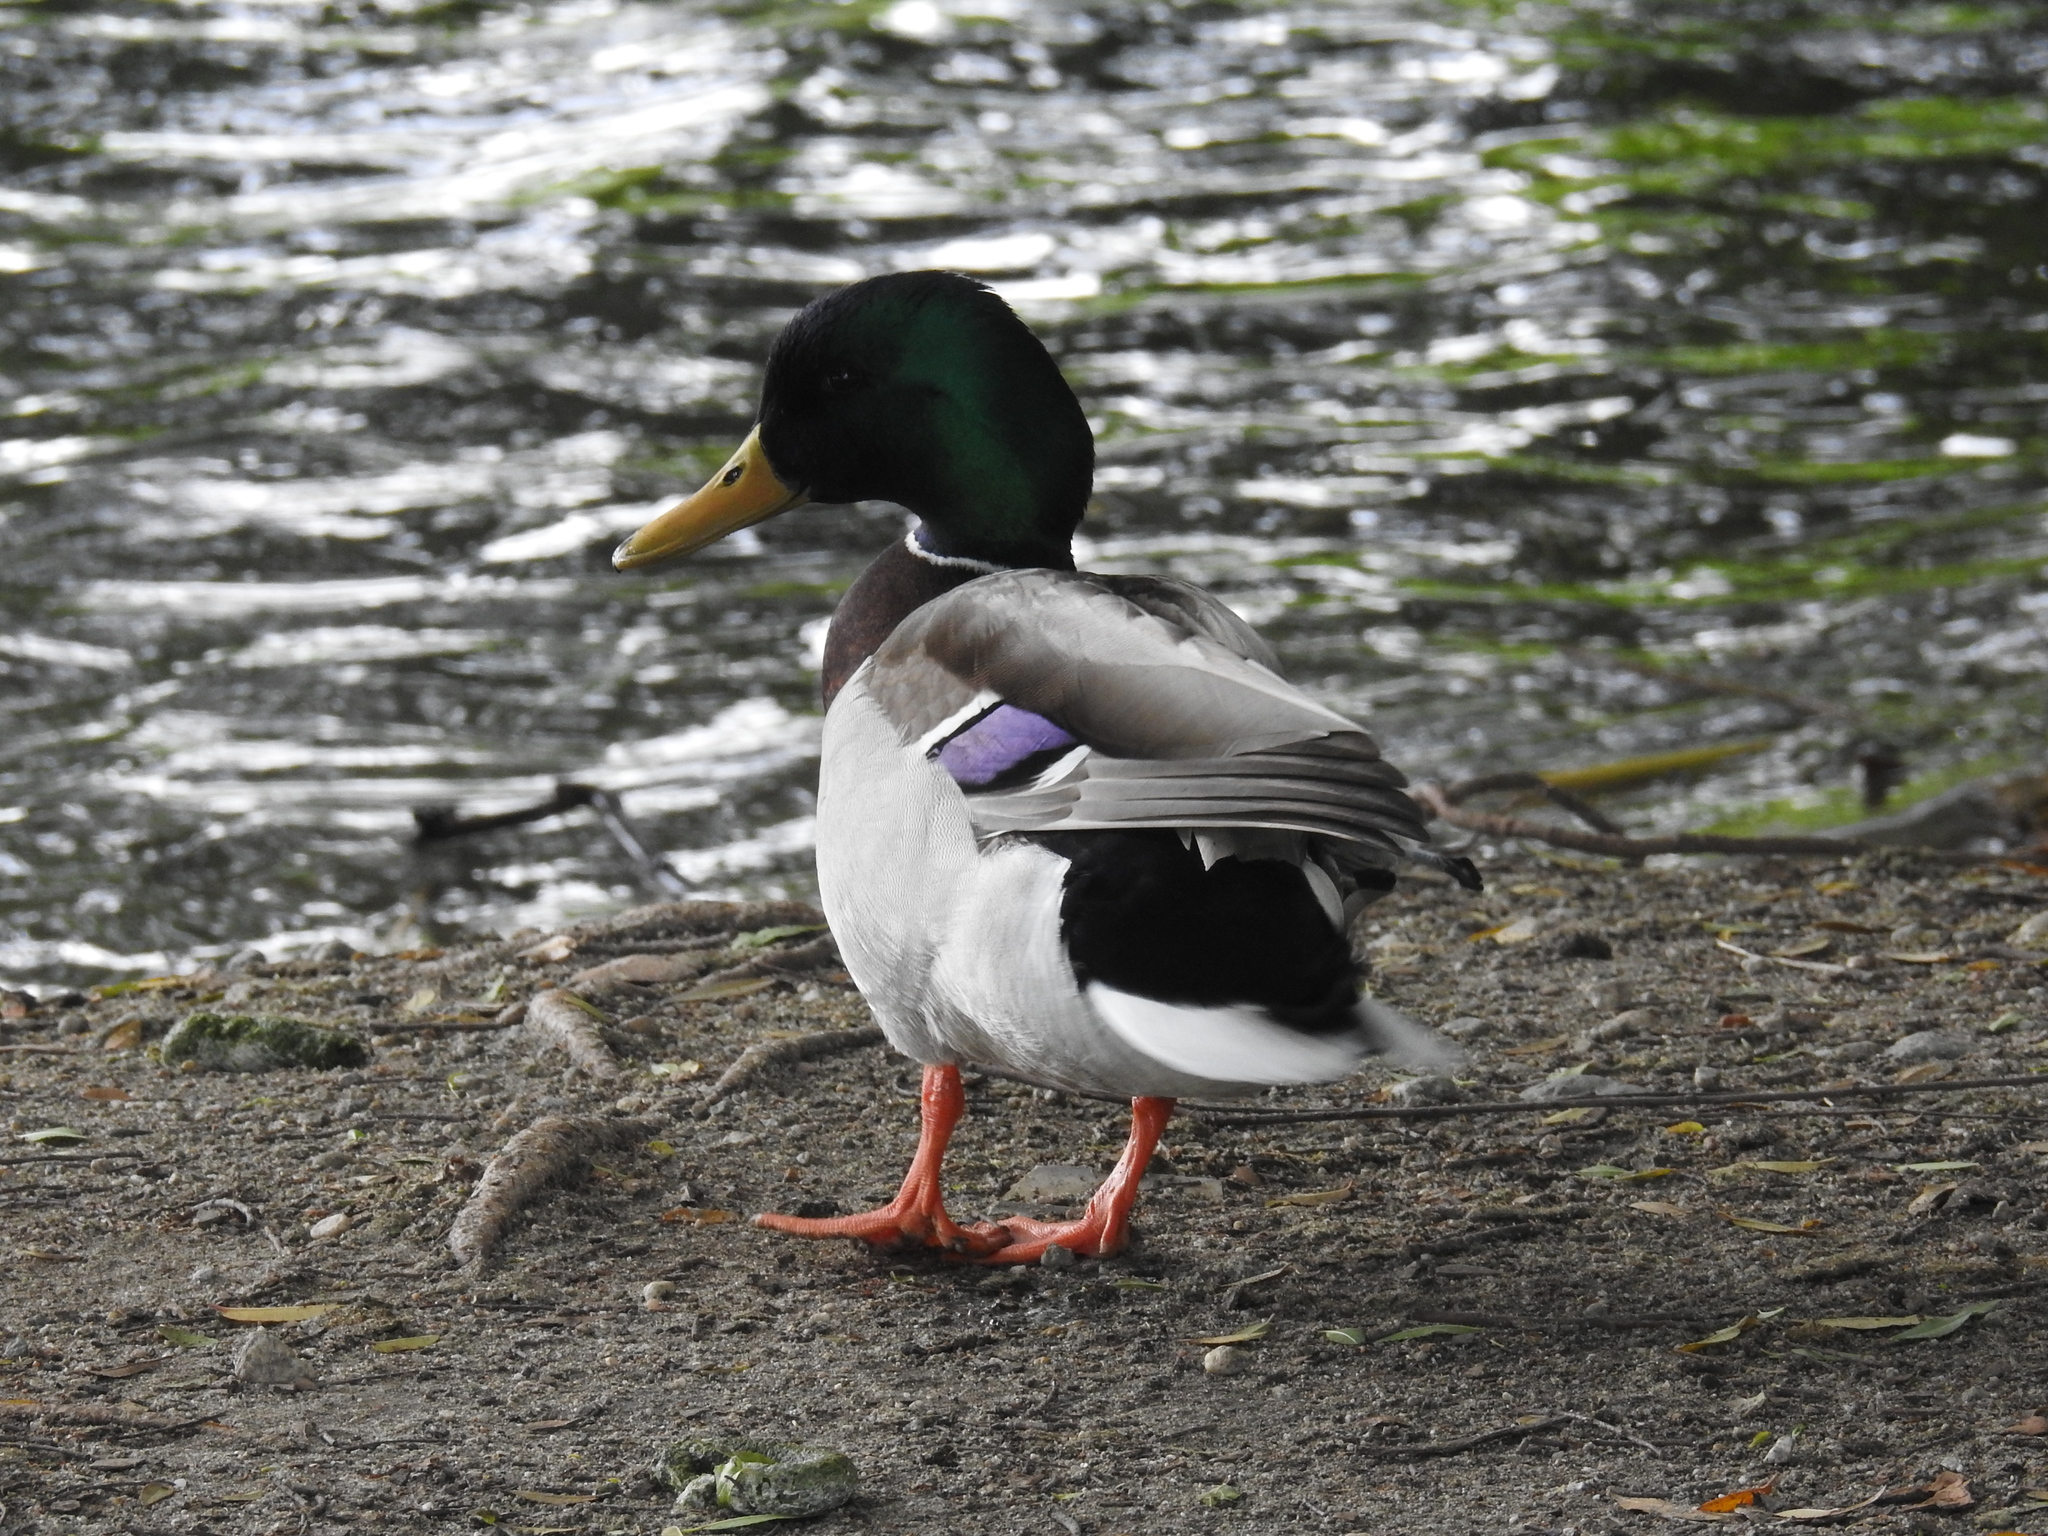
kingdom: Animalia
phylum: Chordata
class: Aves
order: Anseriformes
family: Anatidae
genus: Anas
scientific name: Anas platyrhynchos
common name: Mallard
